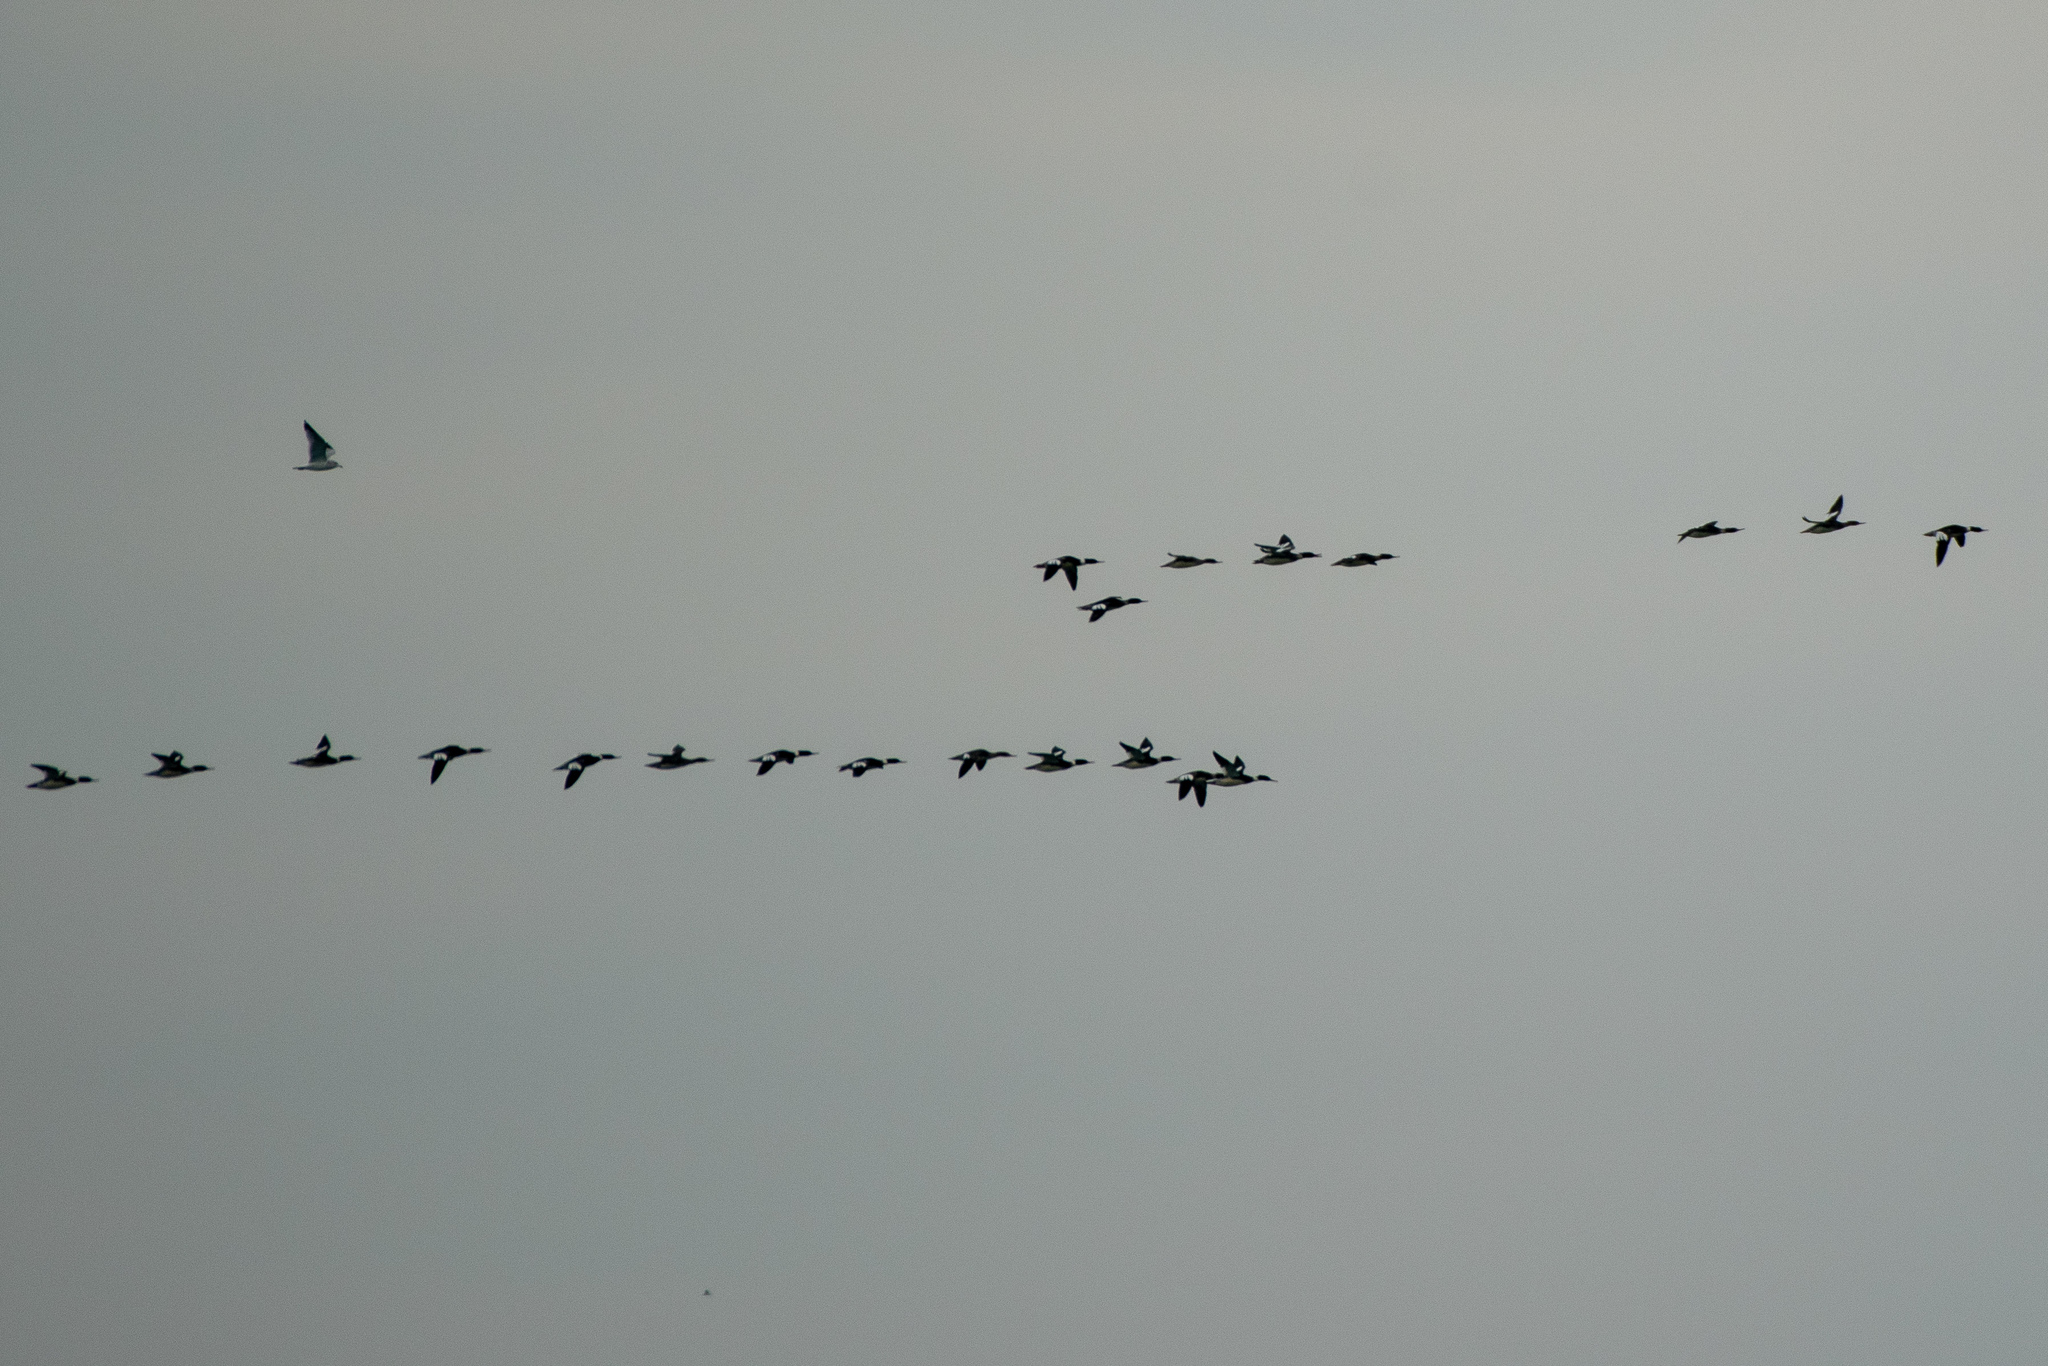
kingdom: Animalia
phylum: Chordata
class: Aves
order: Anseriformes
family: Anatidae
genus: Mergus
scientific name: Mergus serrator
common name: Red-breasted merganser
